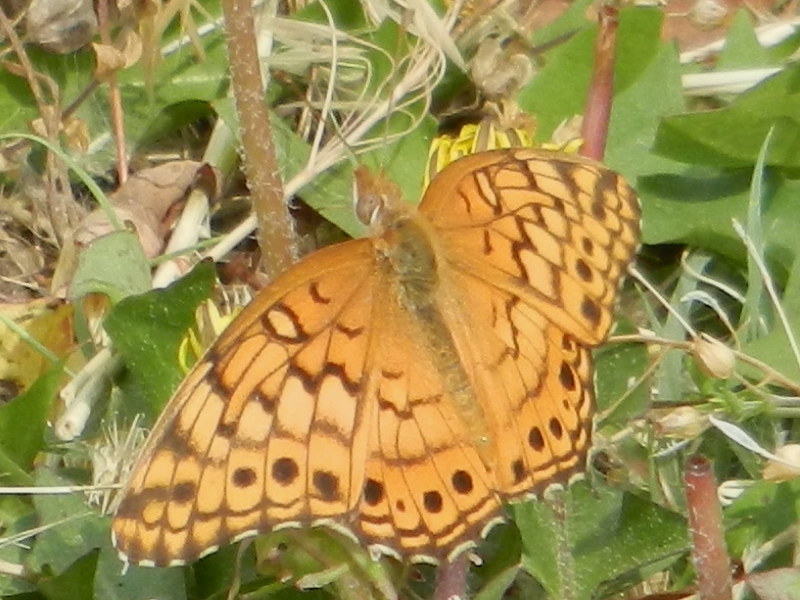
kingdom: Animalia
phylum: Arthropoda
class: Insecta
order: Lepidoptera
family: Nymphalidae
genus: Euptoieta
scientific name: Euptoieta claudia
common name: Variegated fritillary
